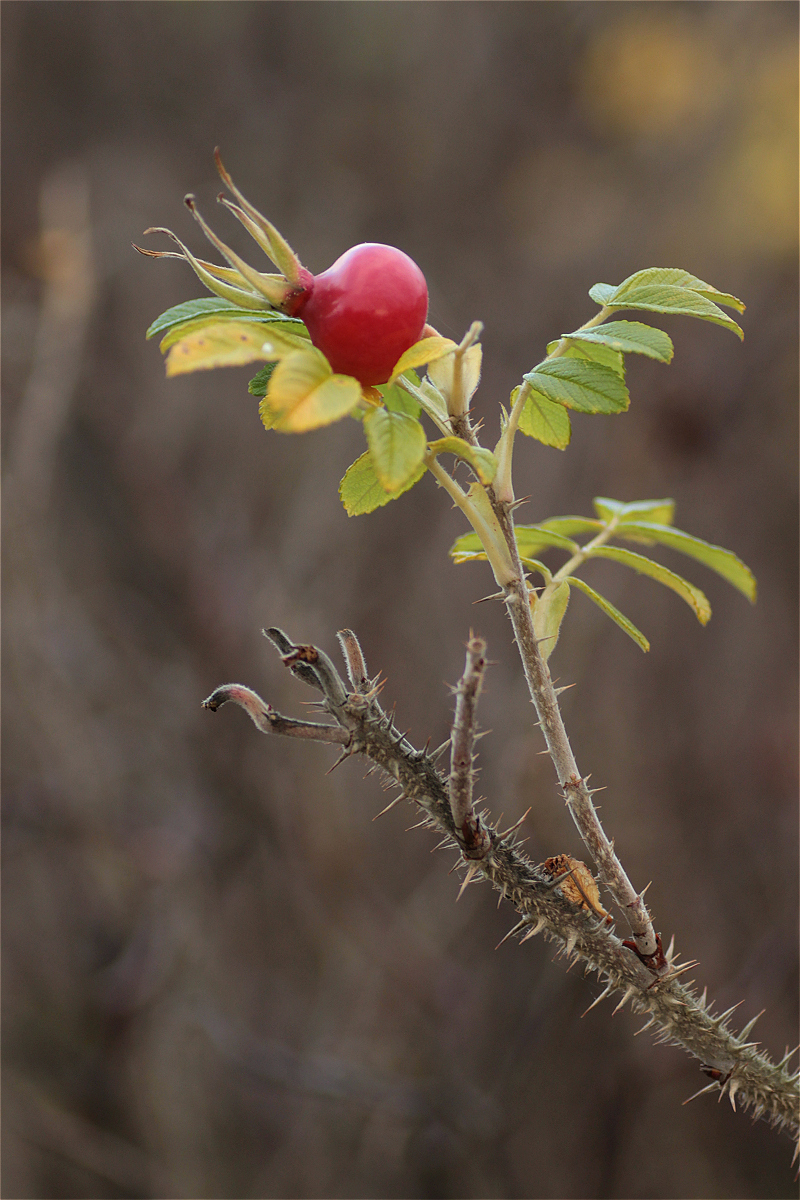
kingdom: Plantae
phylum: Tracheophyta
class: Magnoliopsida
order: Rosales
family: Rosaceae
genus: Rosa
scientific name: Rosa rugosa
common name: Japanese rose
